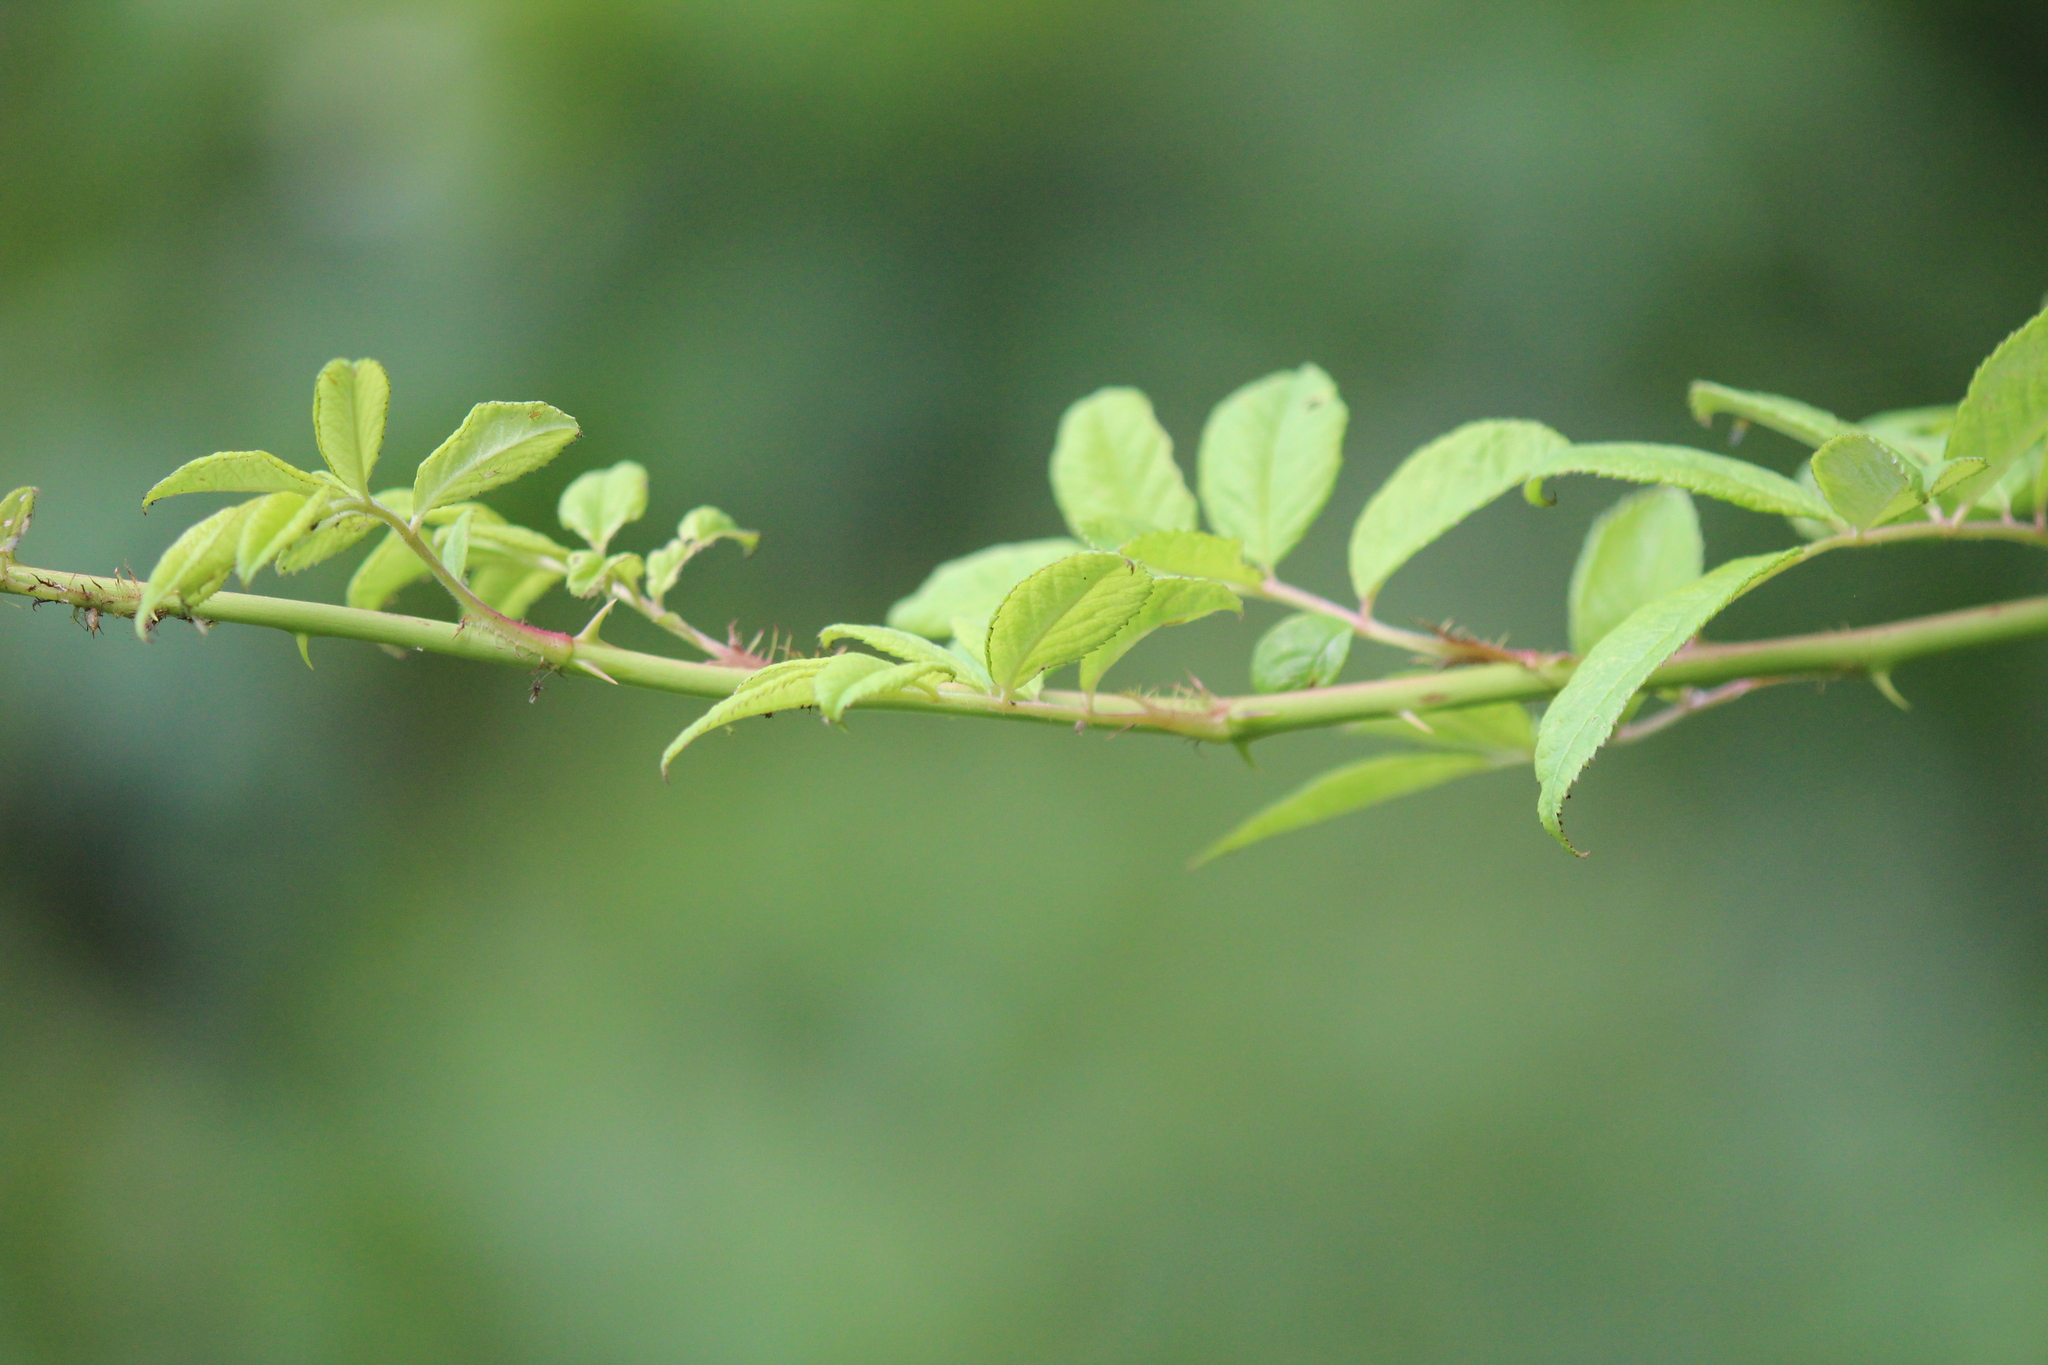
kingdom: Plantae
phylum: Tracheophyta
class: Magnoliopsida
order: Rosales
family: Rosaceae
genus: Rosa
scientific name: Rosa multiflora
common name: Multiflora rose
